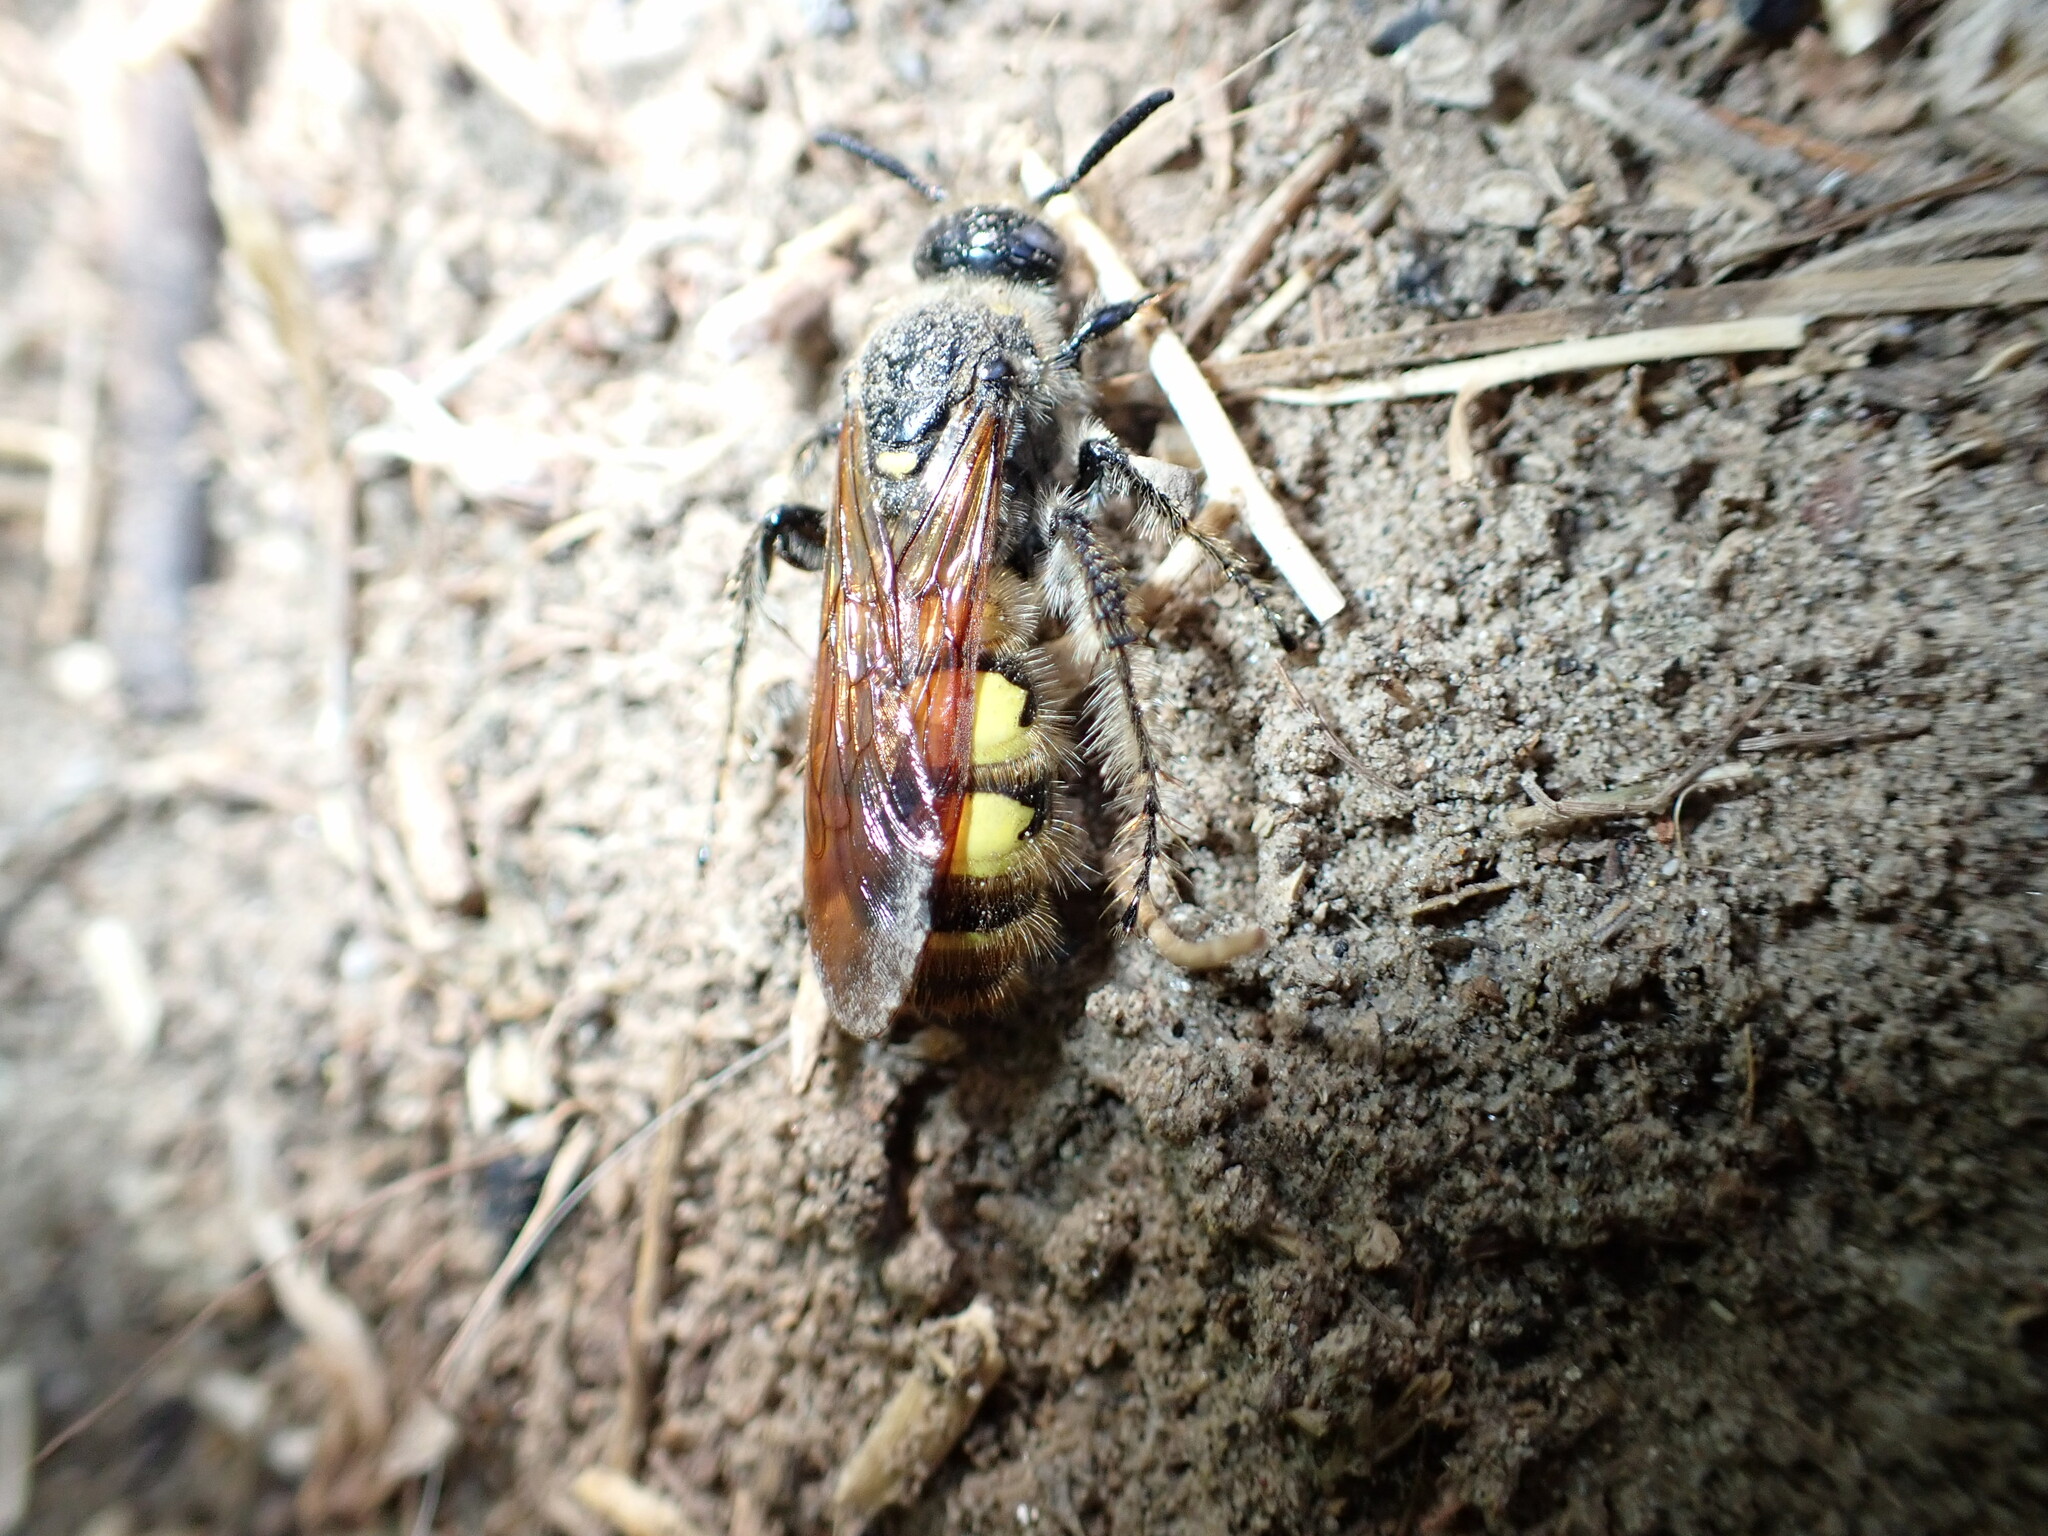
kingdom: Animalia
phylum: Arthropoda
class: Insecta
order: Hymenoptera
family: Scoliidae
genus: Dielis
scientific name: Dielis
